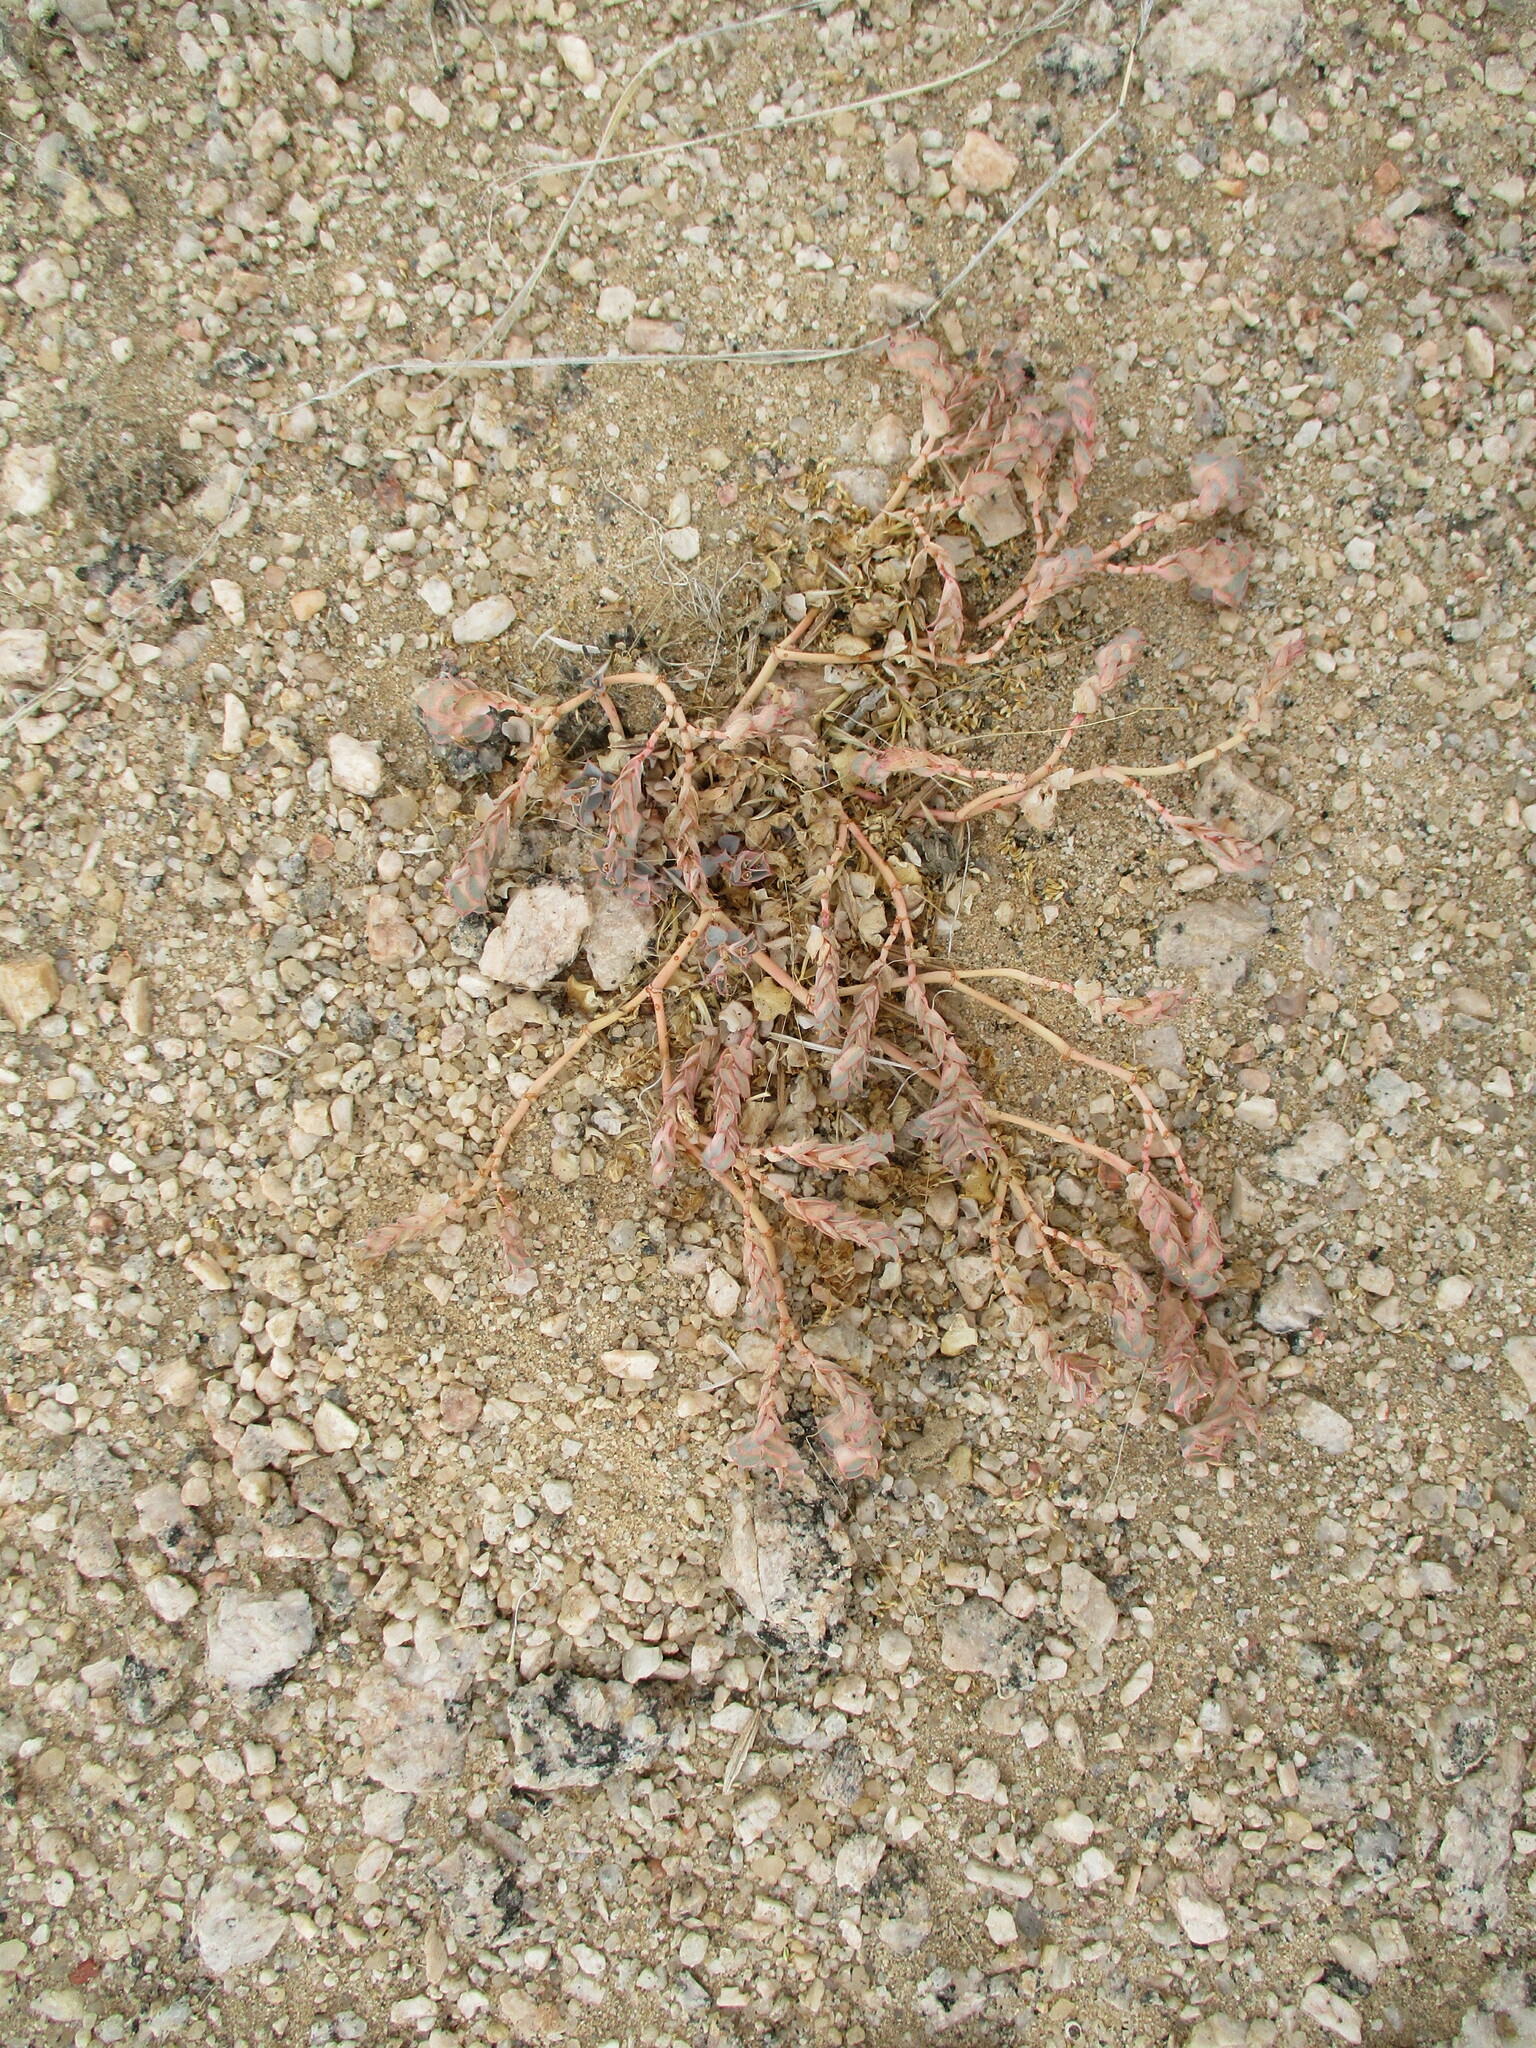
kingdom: Plantae
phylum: Tracheophyta
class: Magnoliopsida
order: Malpighiales
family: Euphorbiaceae
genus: Euphorbia
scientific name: Euphorbia phylloclada
